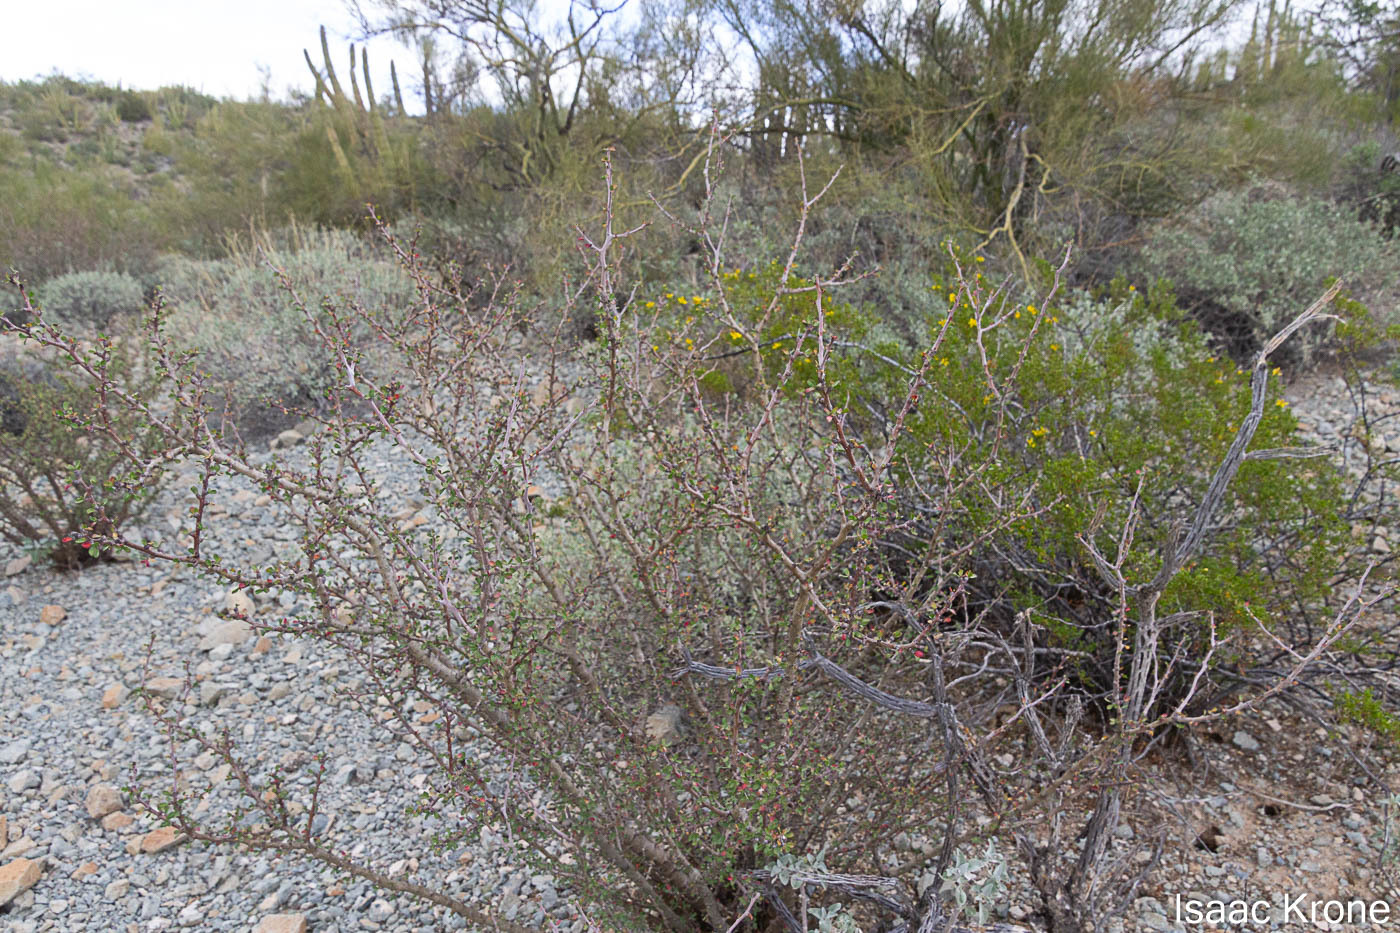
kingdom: Plantae
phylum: Tracheophyta
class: Magnoliopsida
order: Malpighiales
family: Euphorbiaceae
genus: Jatropha
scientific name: Jatropha cuneata
